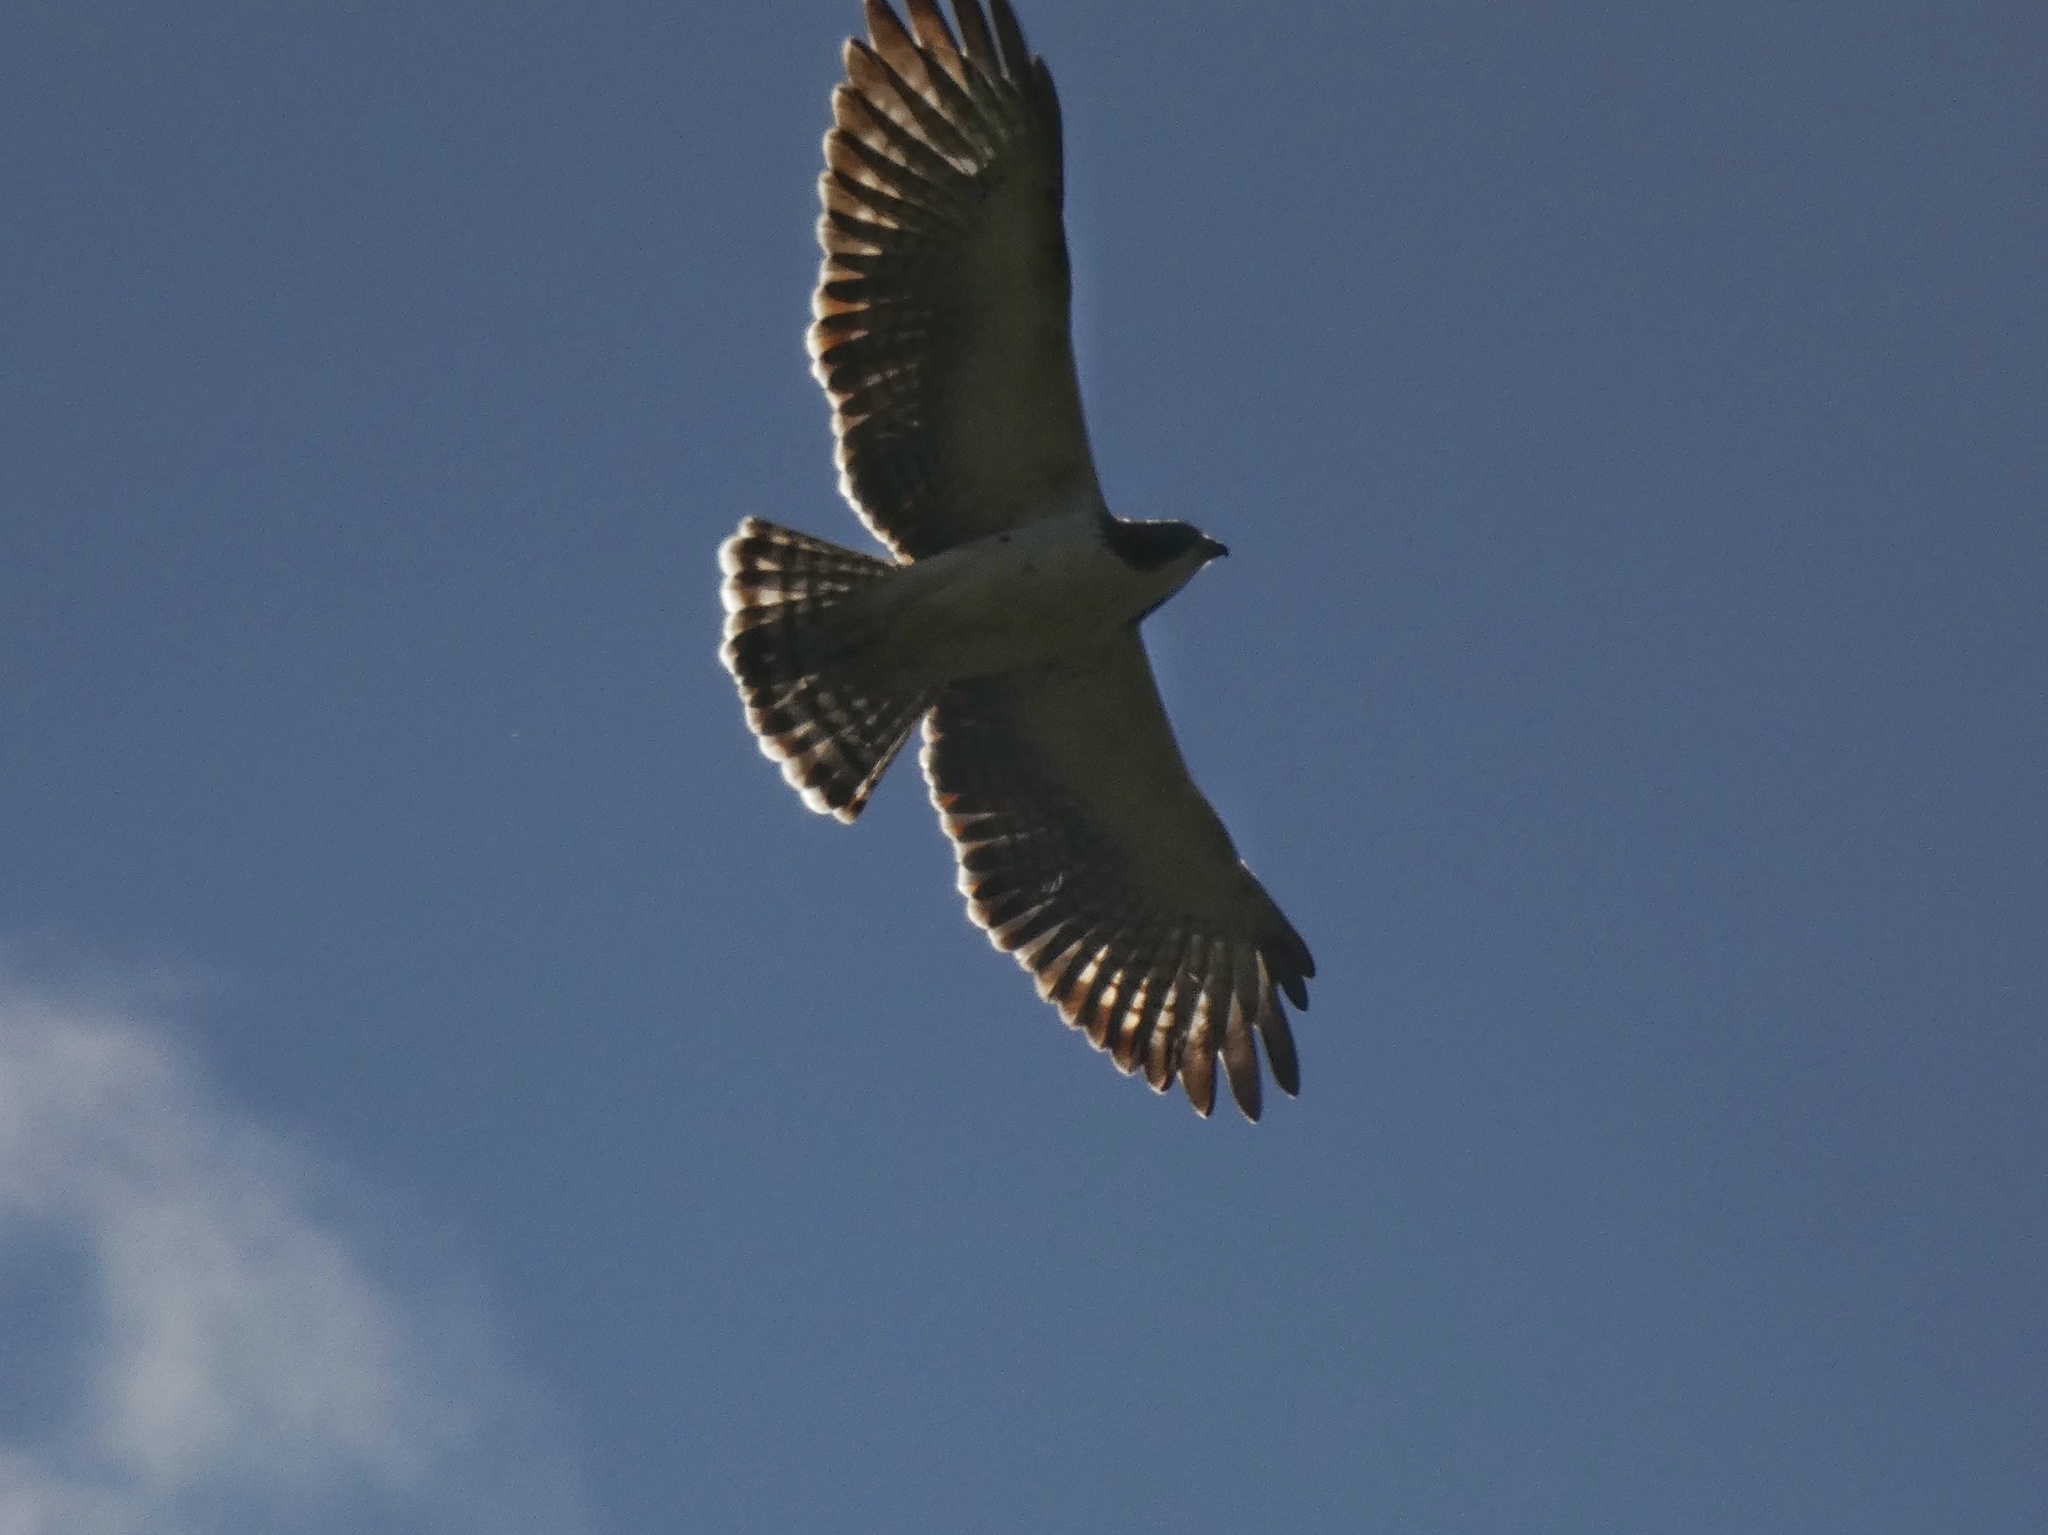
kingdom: Animalia
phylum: Chordata
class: Aves
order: Accipitriformes
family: Accipitridae
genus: Buteo
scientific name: Buteo brachyurus
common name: Short-tailed hawk
